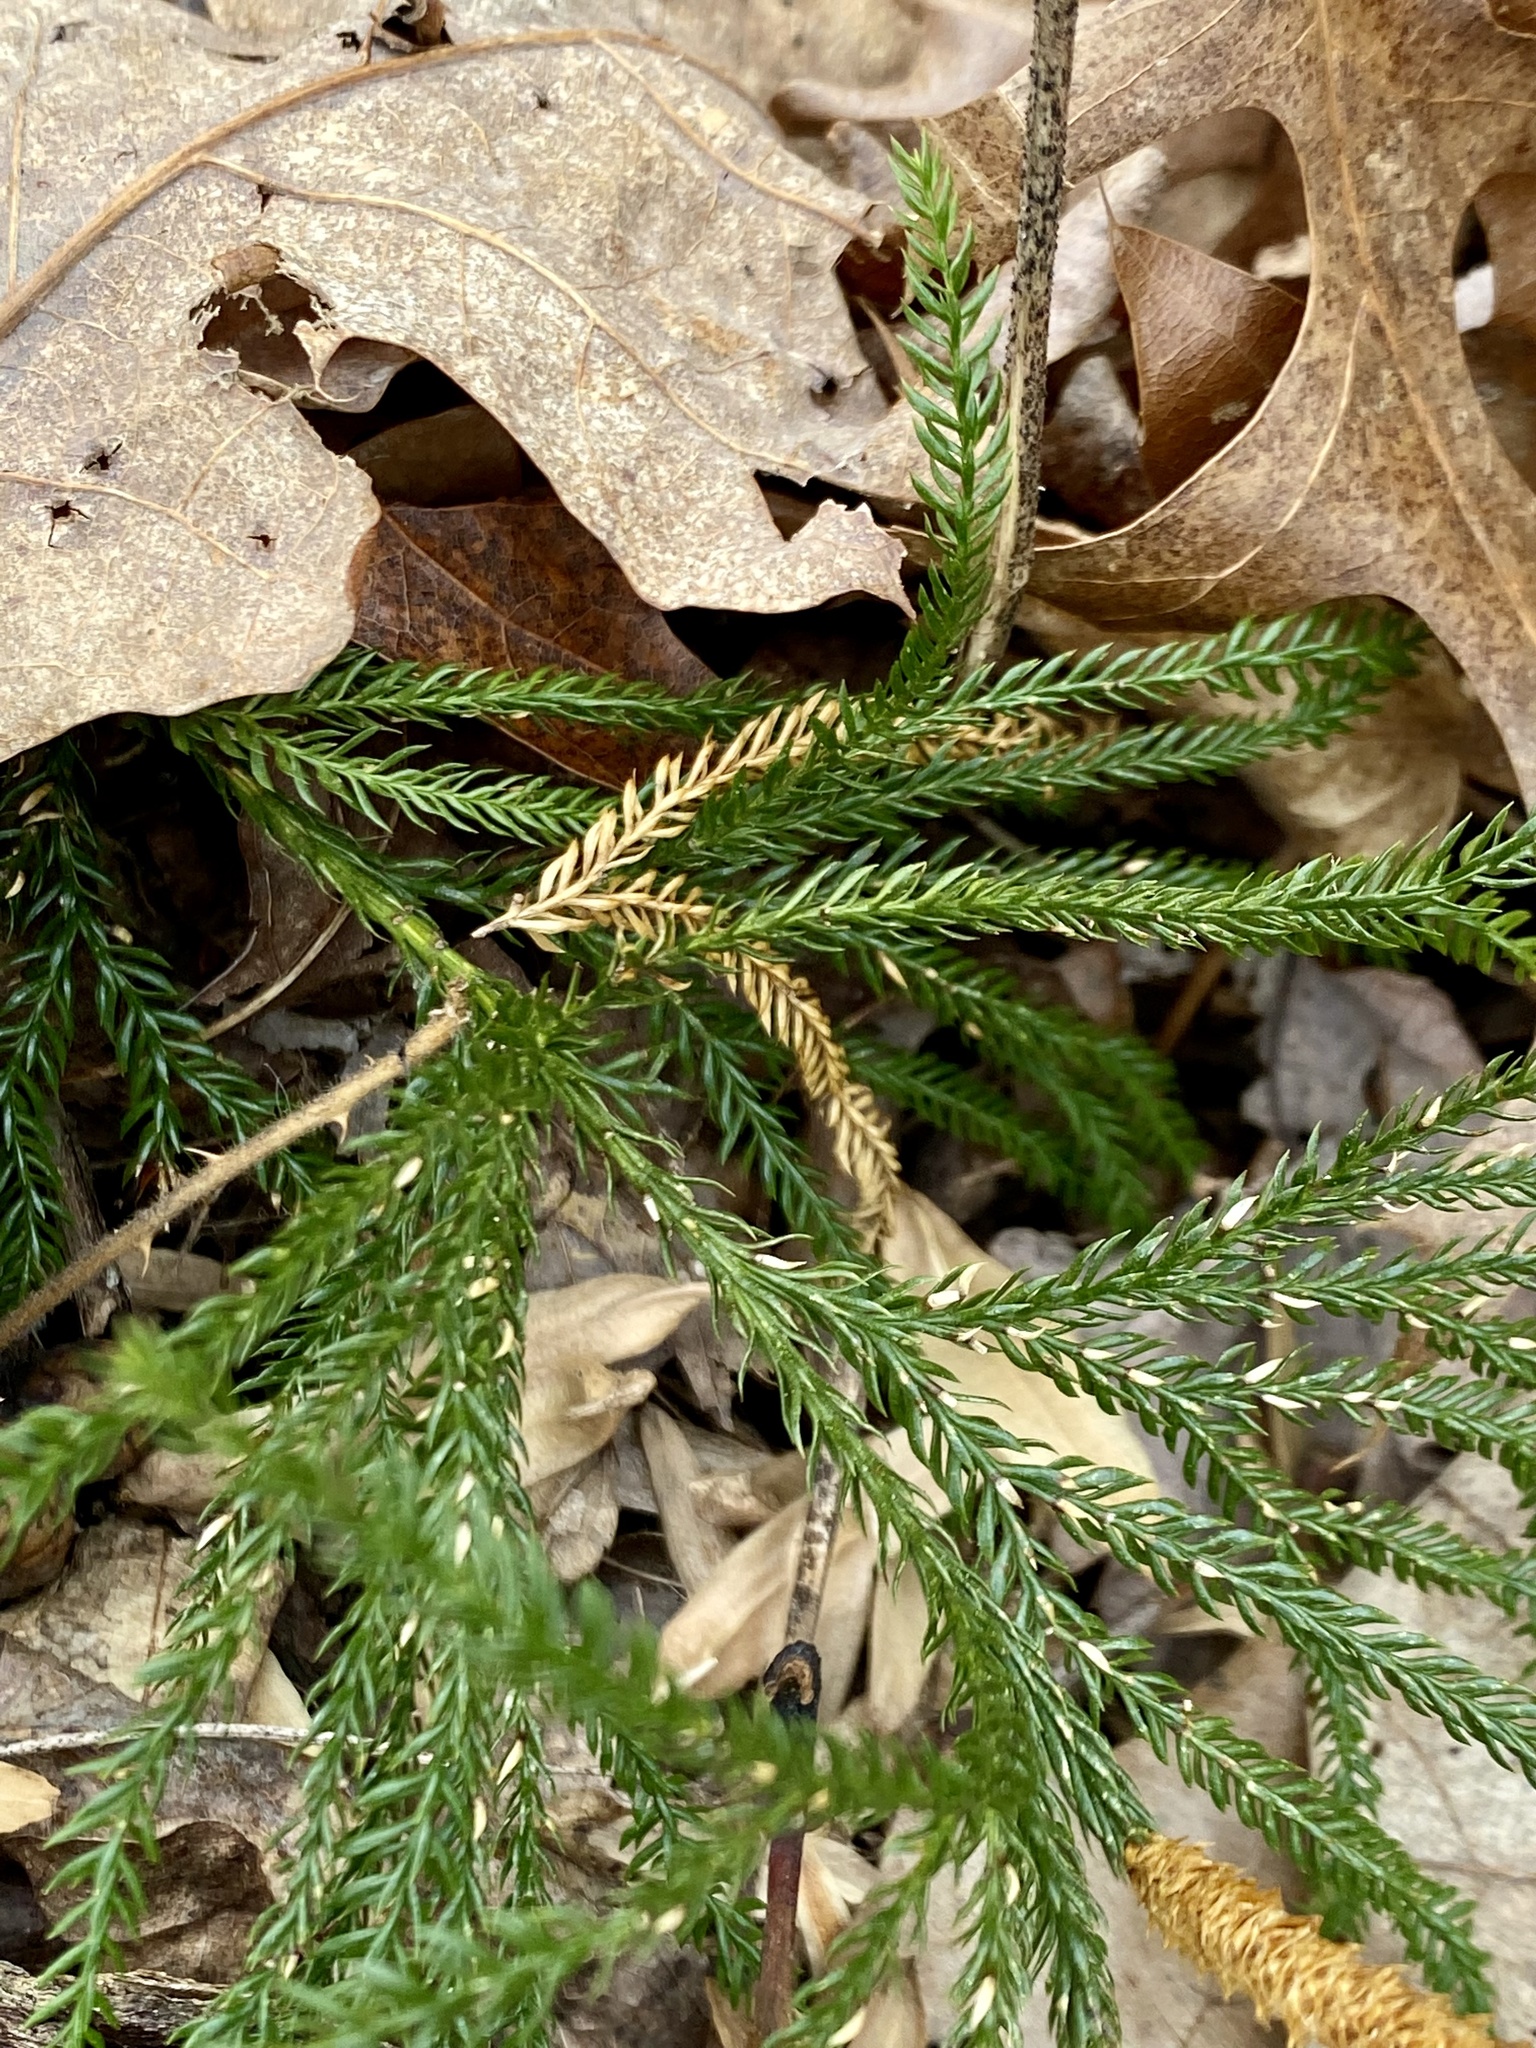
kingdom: Plantae
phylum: Tracheophyta
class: Lycopodiopsida
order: Lycopodiales
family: Lycopodiaceae
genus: Dendrolycopodium
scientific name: Dendrolycopodium obscurum
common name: Common ground-pine
